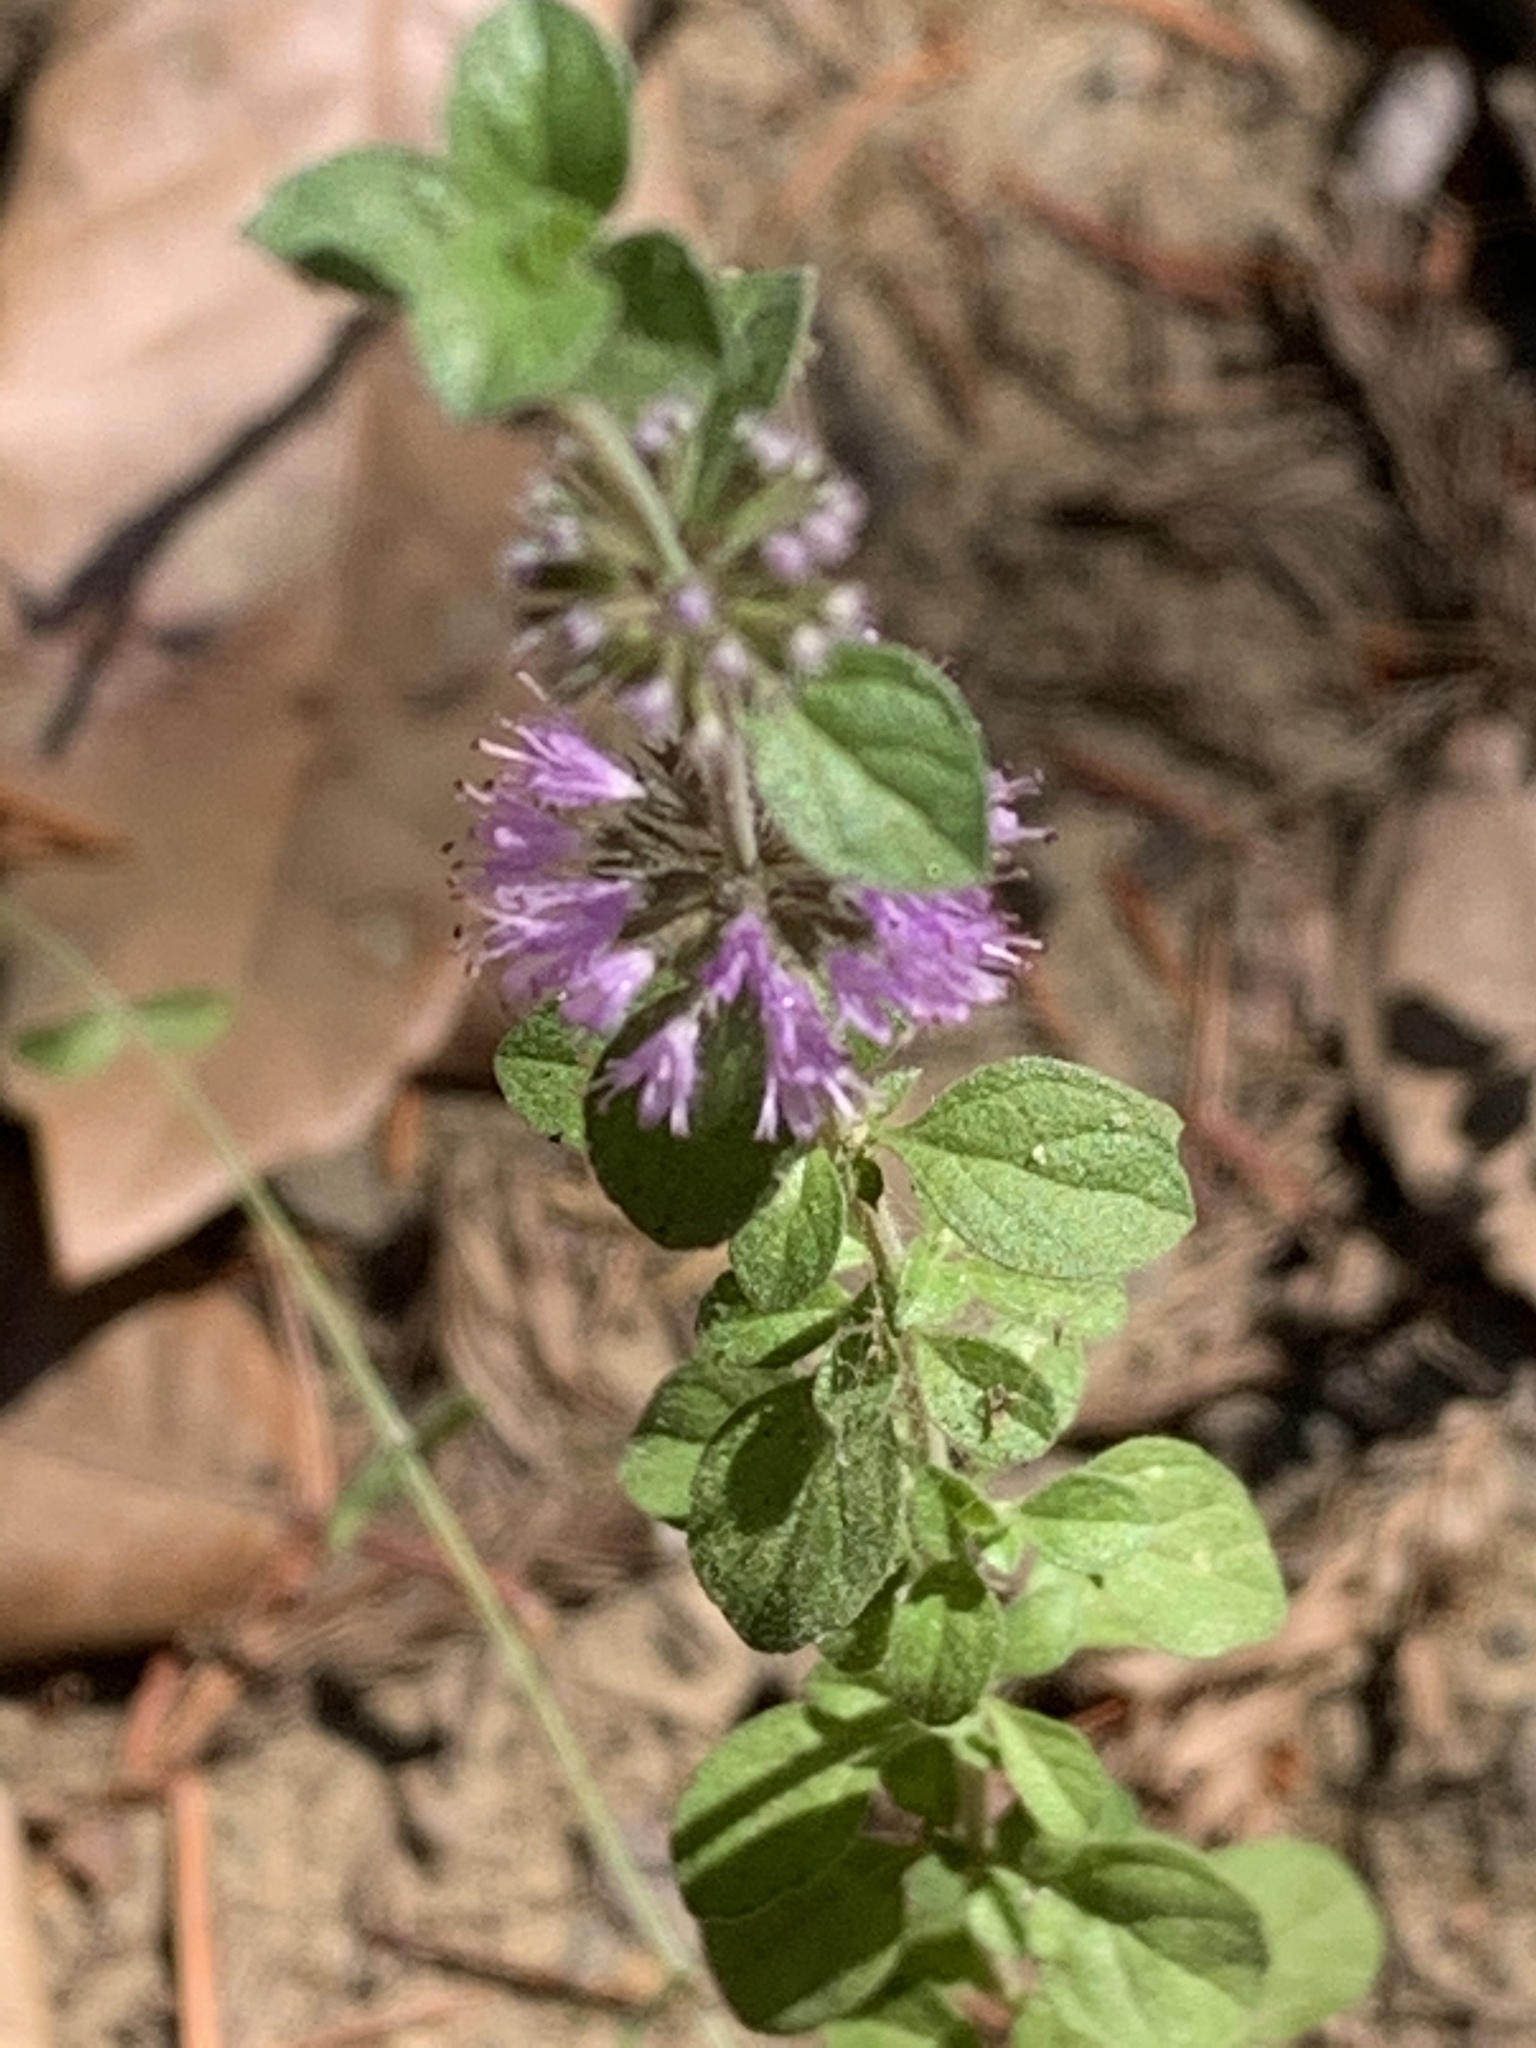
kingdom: Plantae
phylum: Tracheophyta
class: Magnoliopsida
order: Lamiales
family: Lamiaceae
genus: Mentha
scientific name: Mentha pulegium
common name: Pennyroyal
